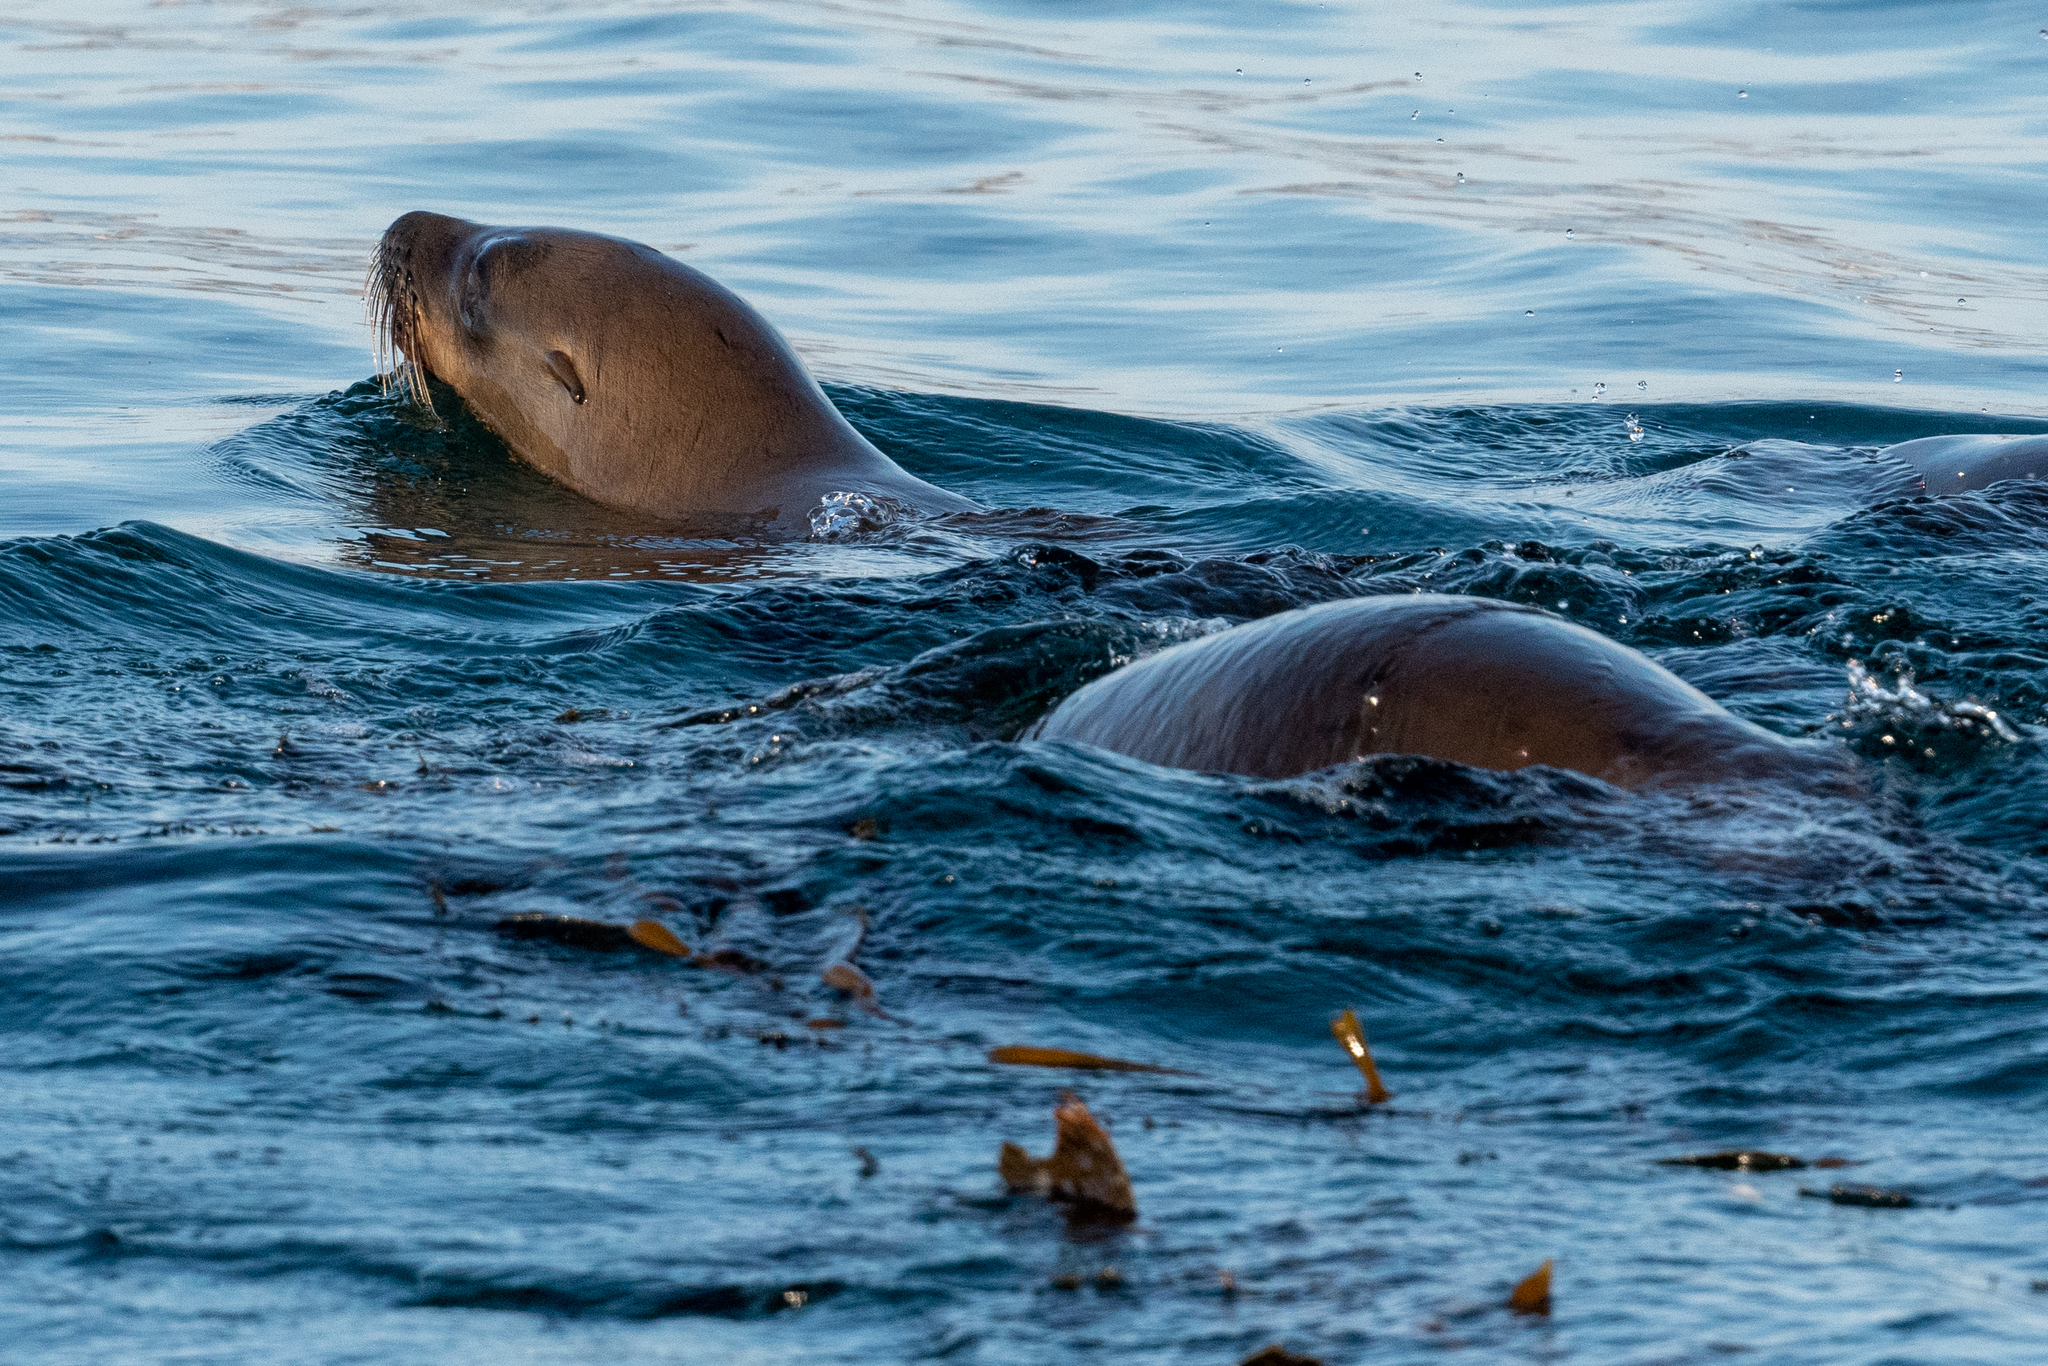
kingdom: Animalia
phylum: Chordata
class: Mammalia
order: Carnivora
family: Otariidae
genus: Zalophus
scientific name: Zalophus californianus
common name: California sea lion
